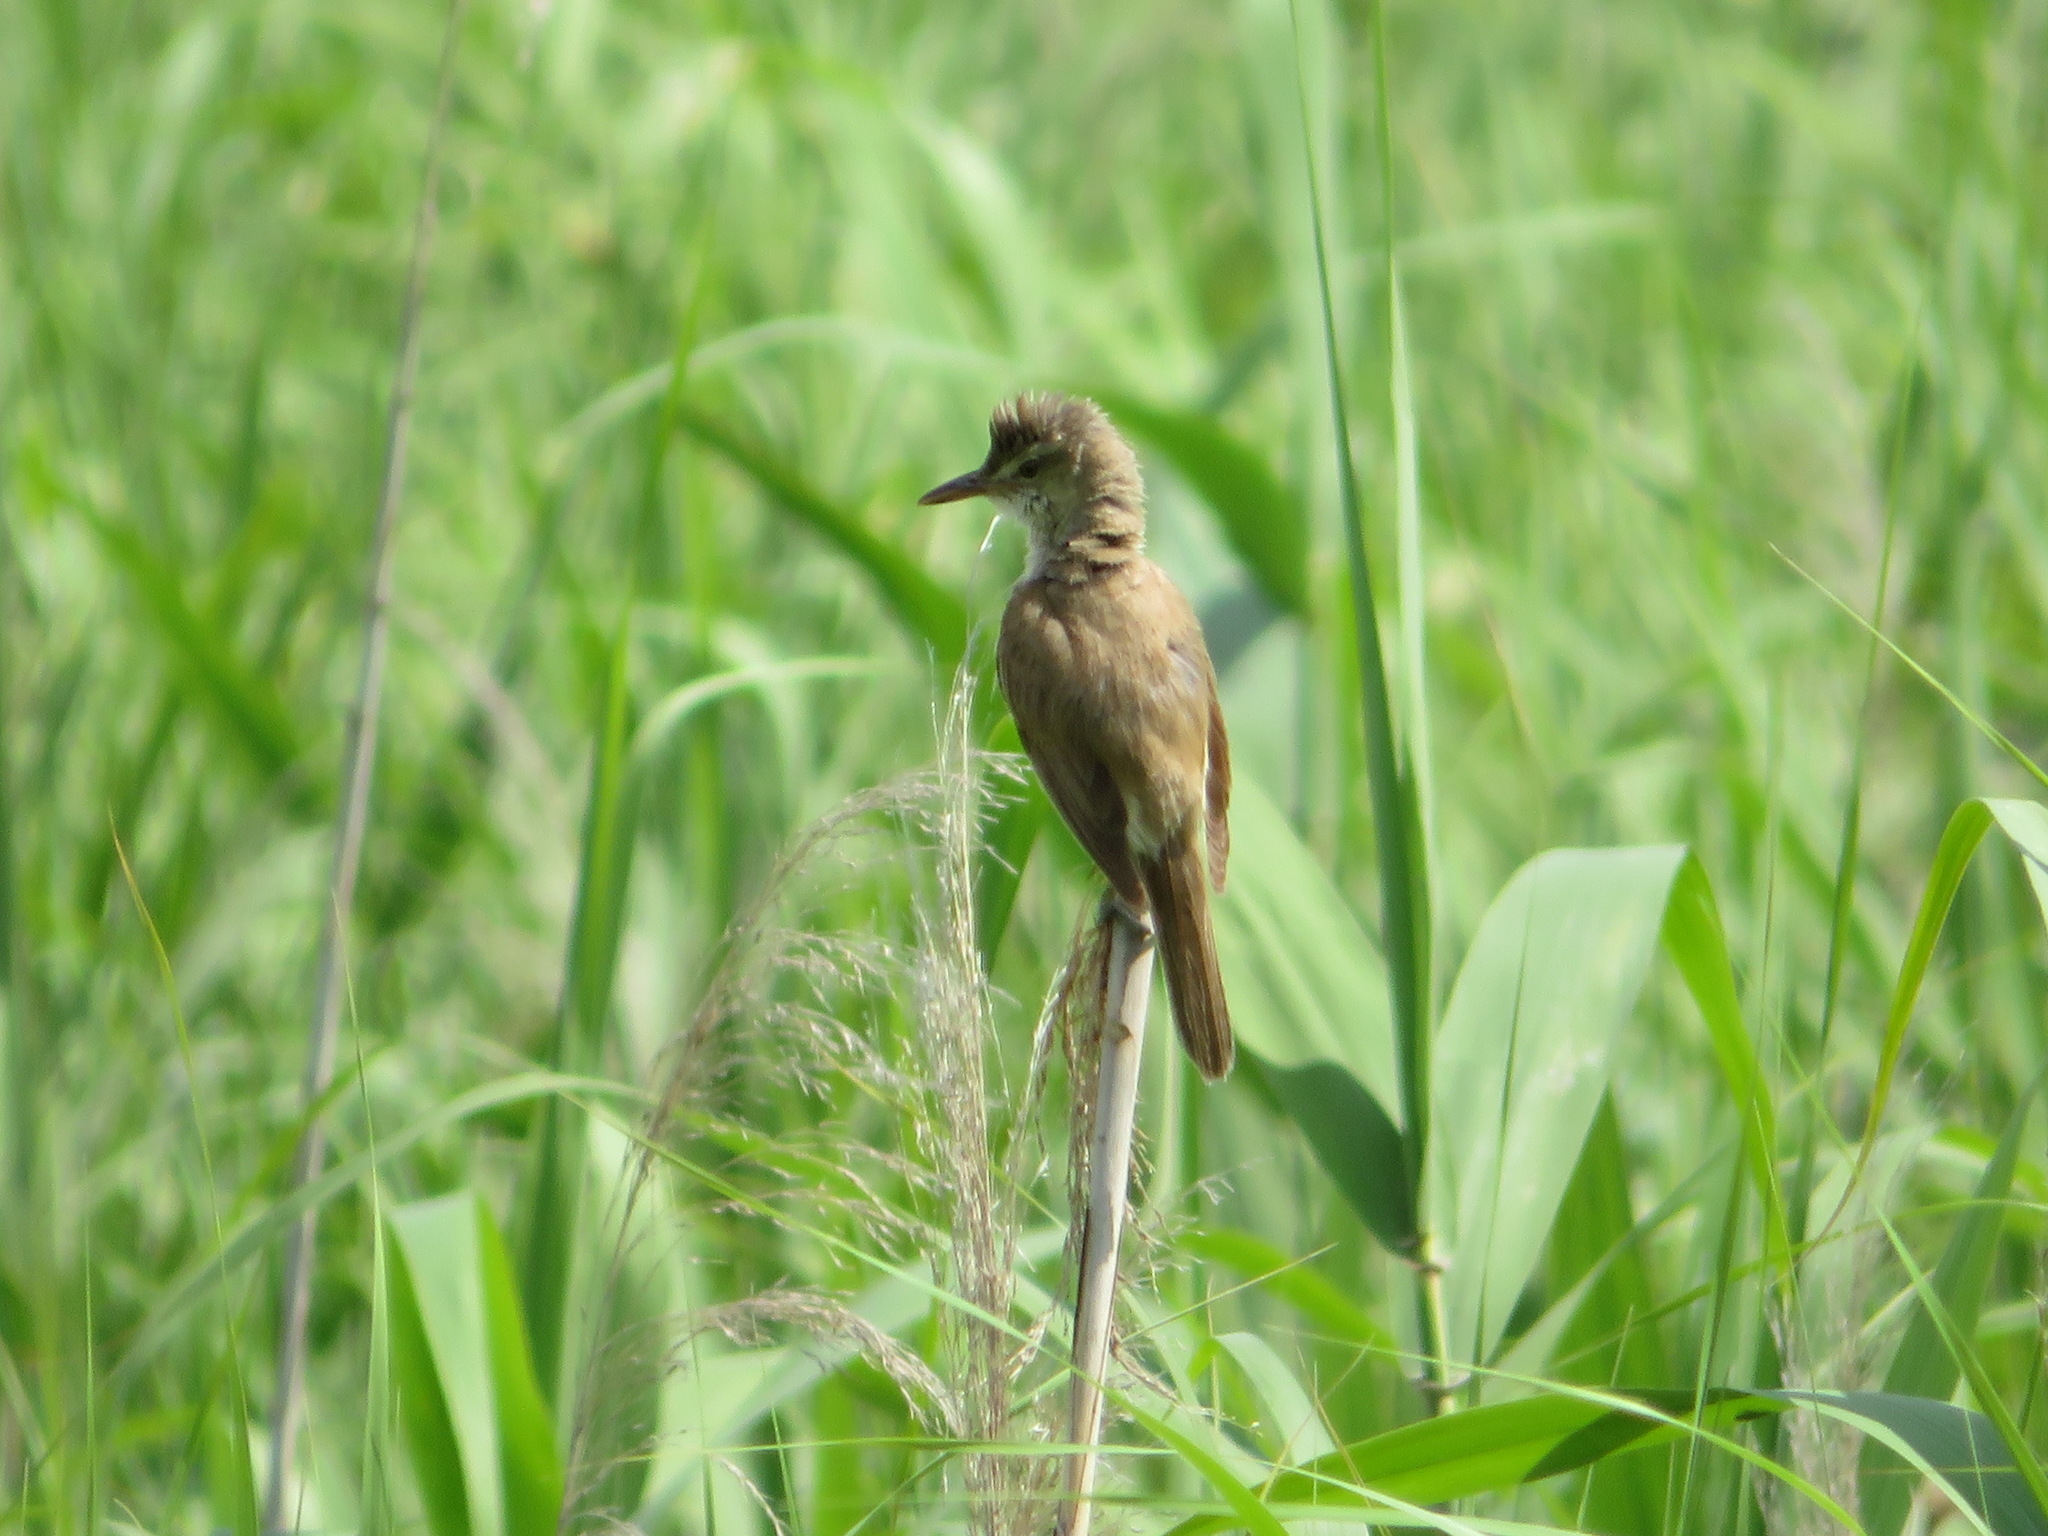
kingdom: Animalia
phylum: Chordata
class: Aves
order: Passeriformes
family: Acrocephalidae
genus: Acrocephalus
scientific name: Acrocephalus orientalis
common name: Oriental reed warbler
